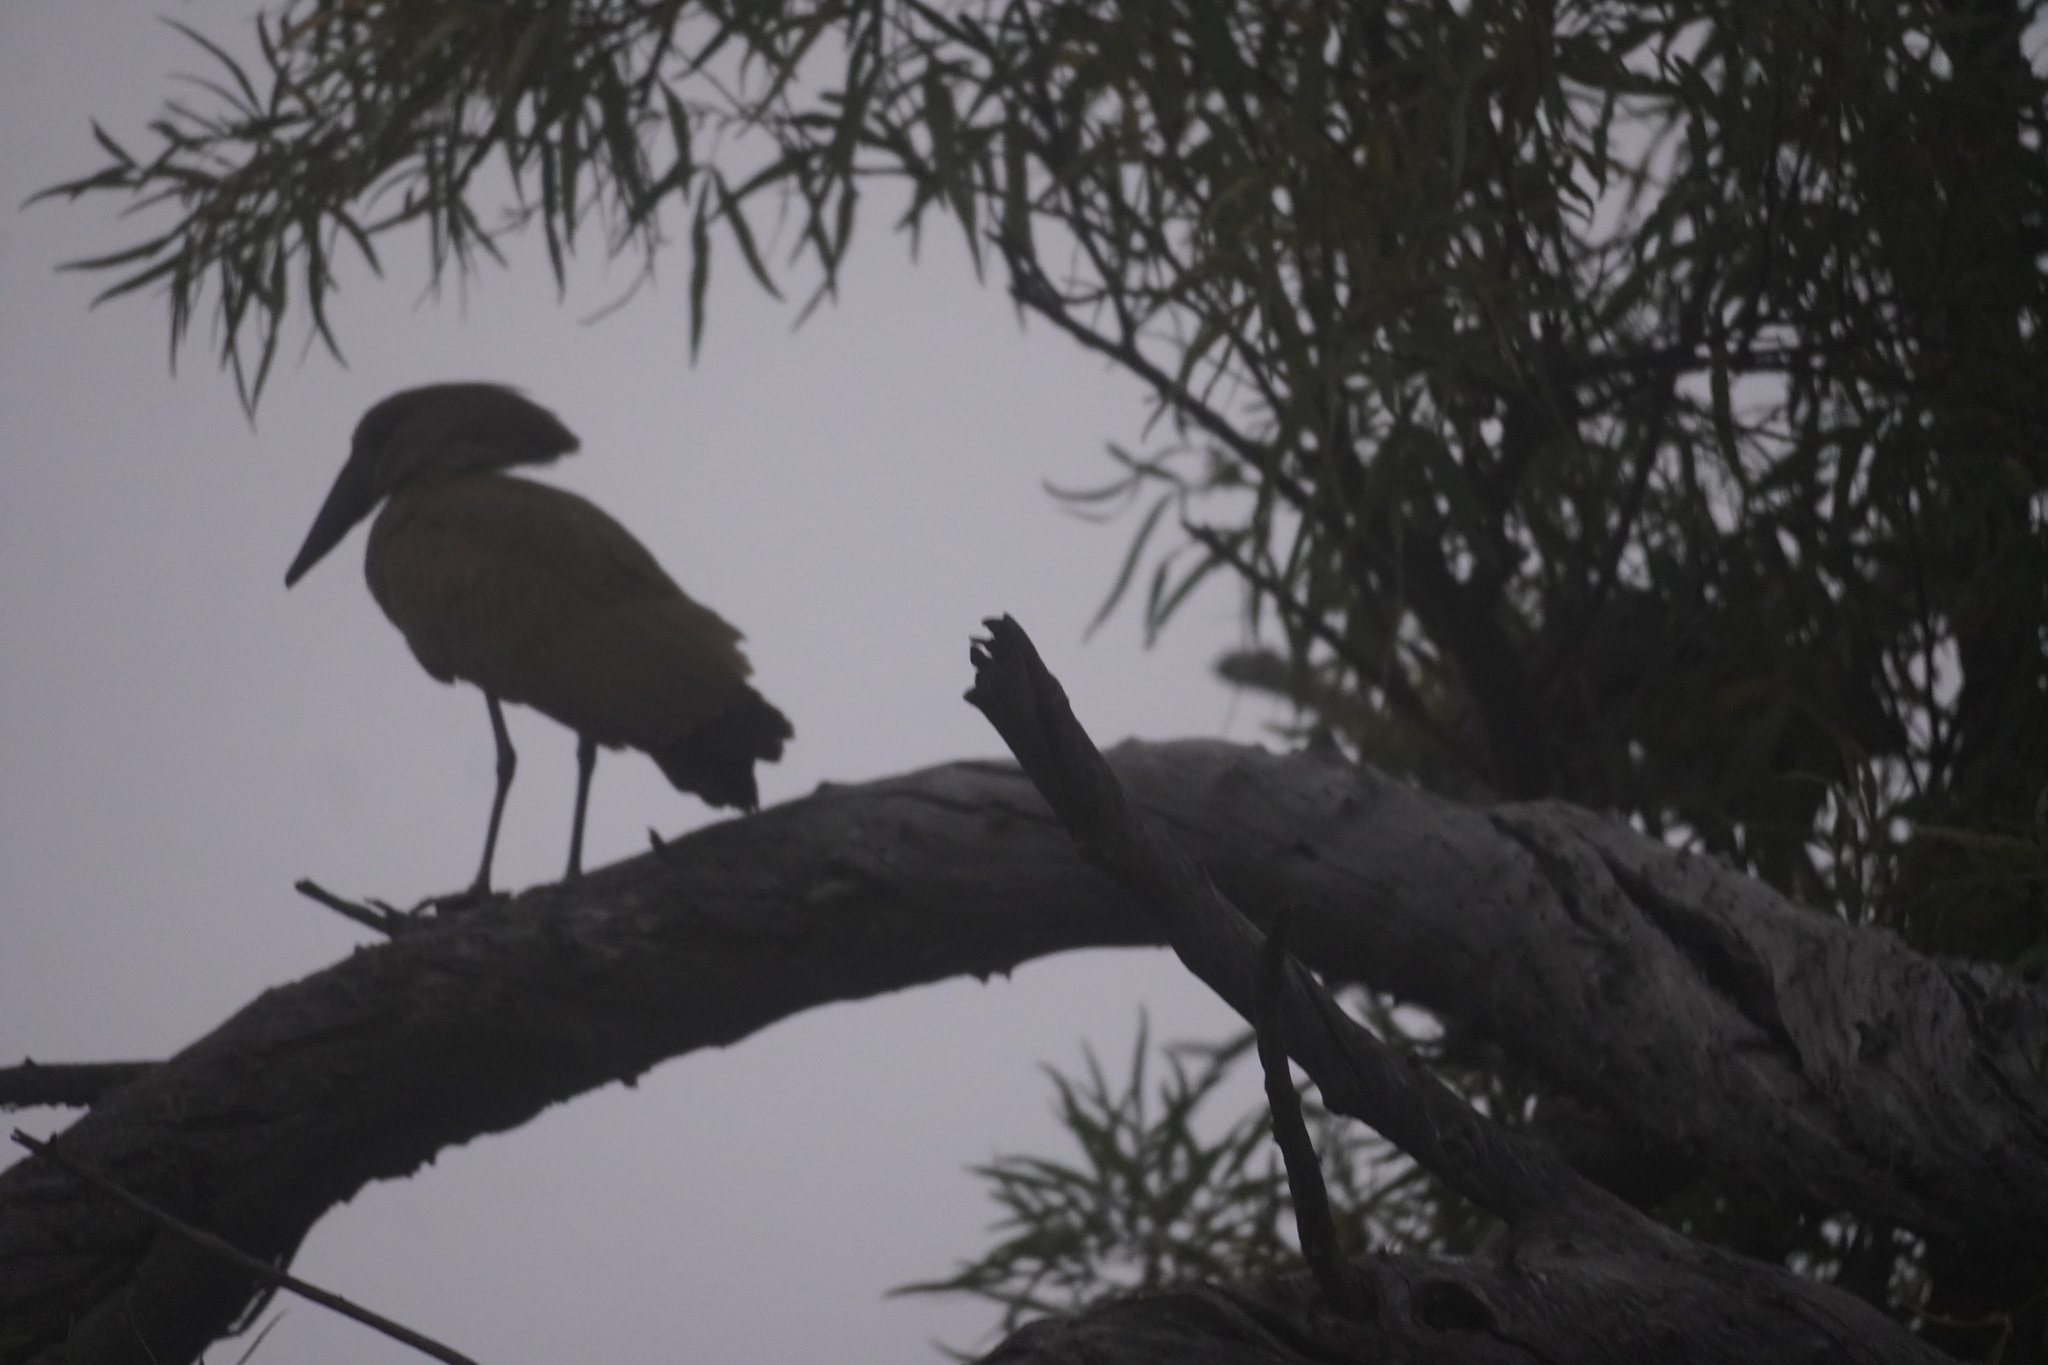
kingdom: Animalia
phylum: Chordata
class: Aves
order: Pelecaniformes
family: Scopidae
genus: Scopus
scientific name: Scopus umbretta
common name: Hamerkop
